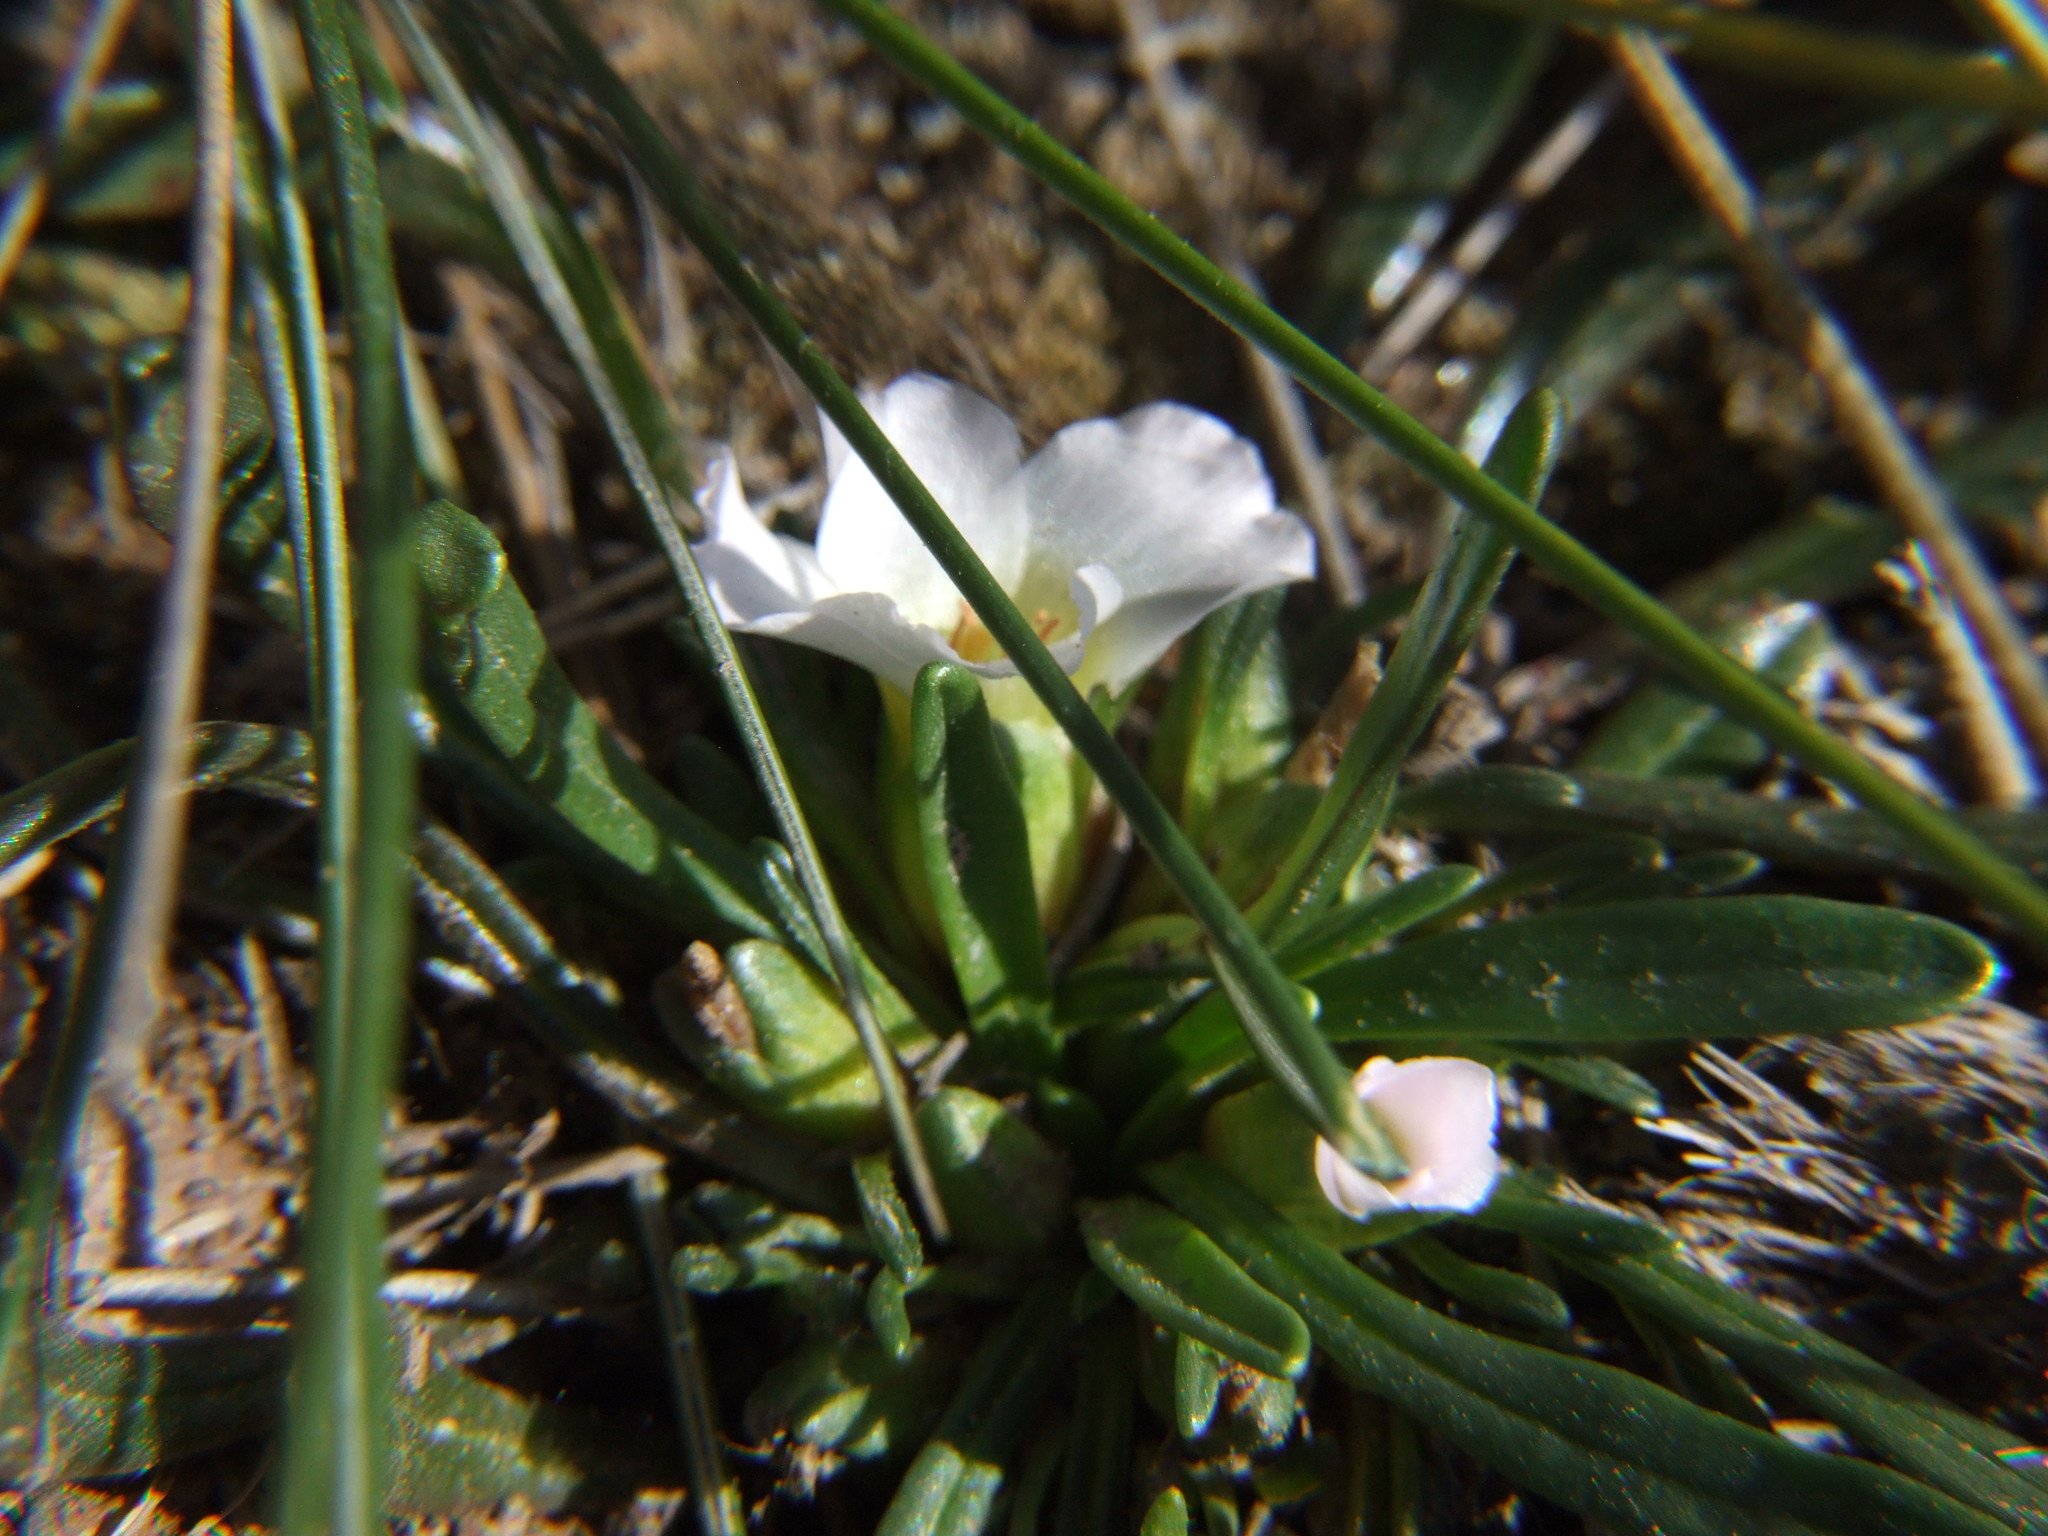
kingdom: Plantae
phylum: Tracheophyta
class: Magnoliopsida
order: Caryophyllales
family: Montiaceae
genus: Calandrinia
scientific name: Calandrinia acaulis
